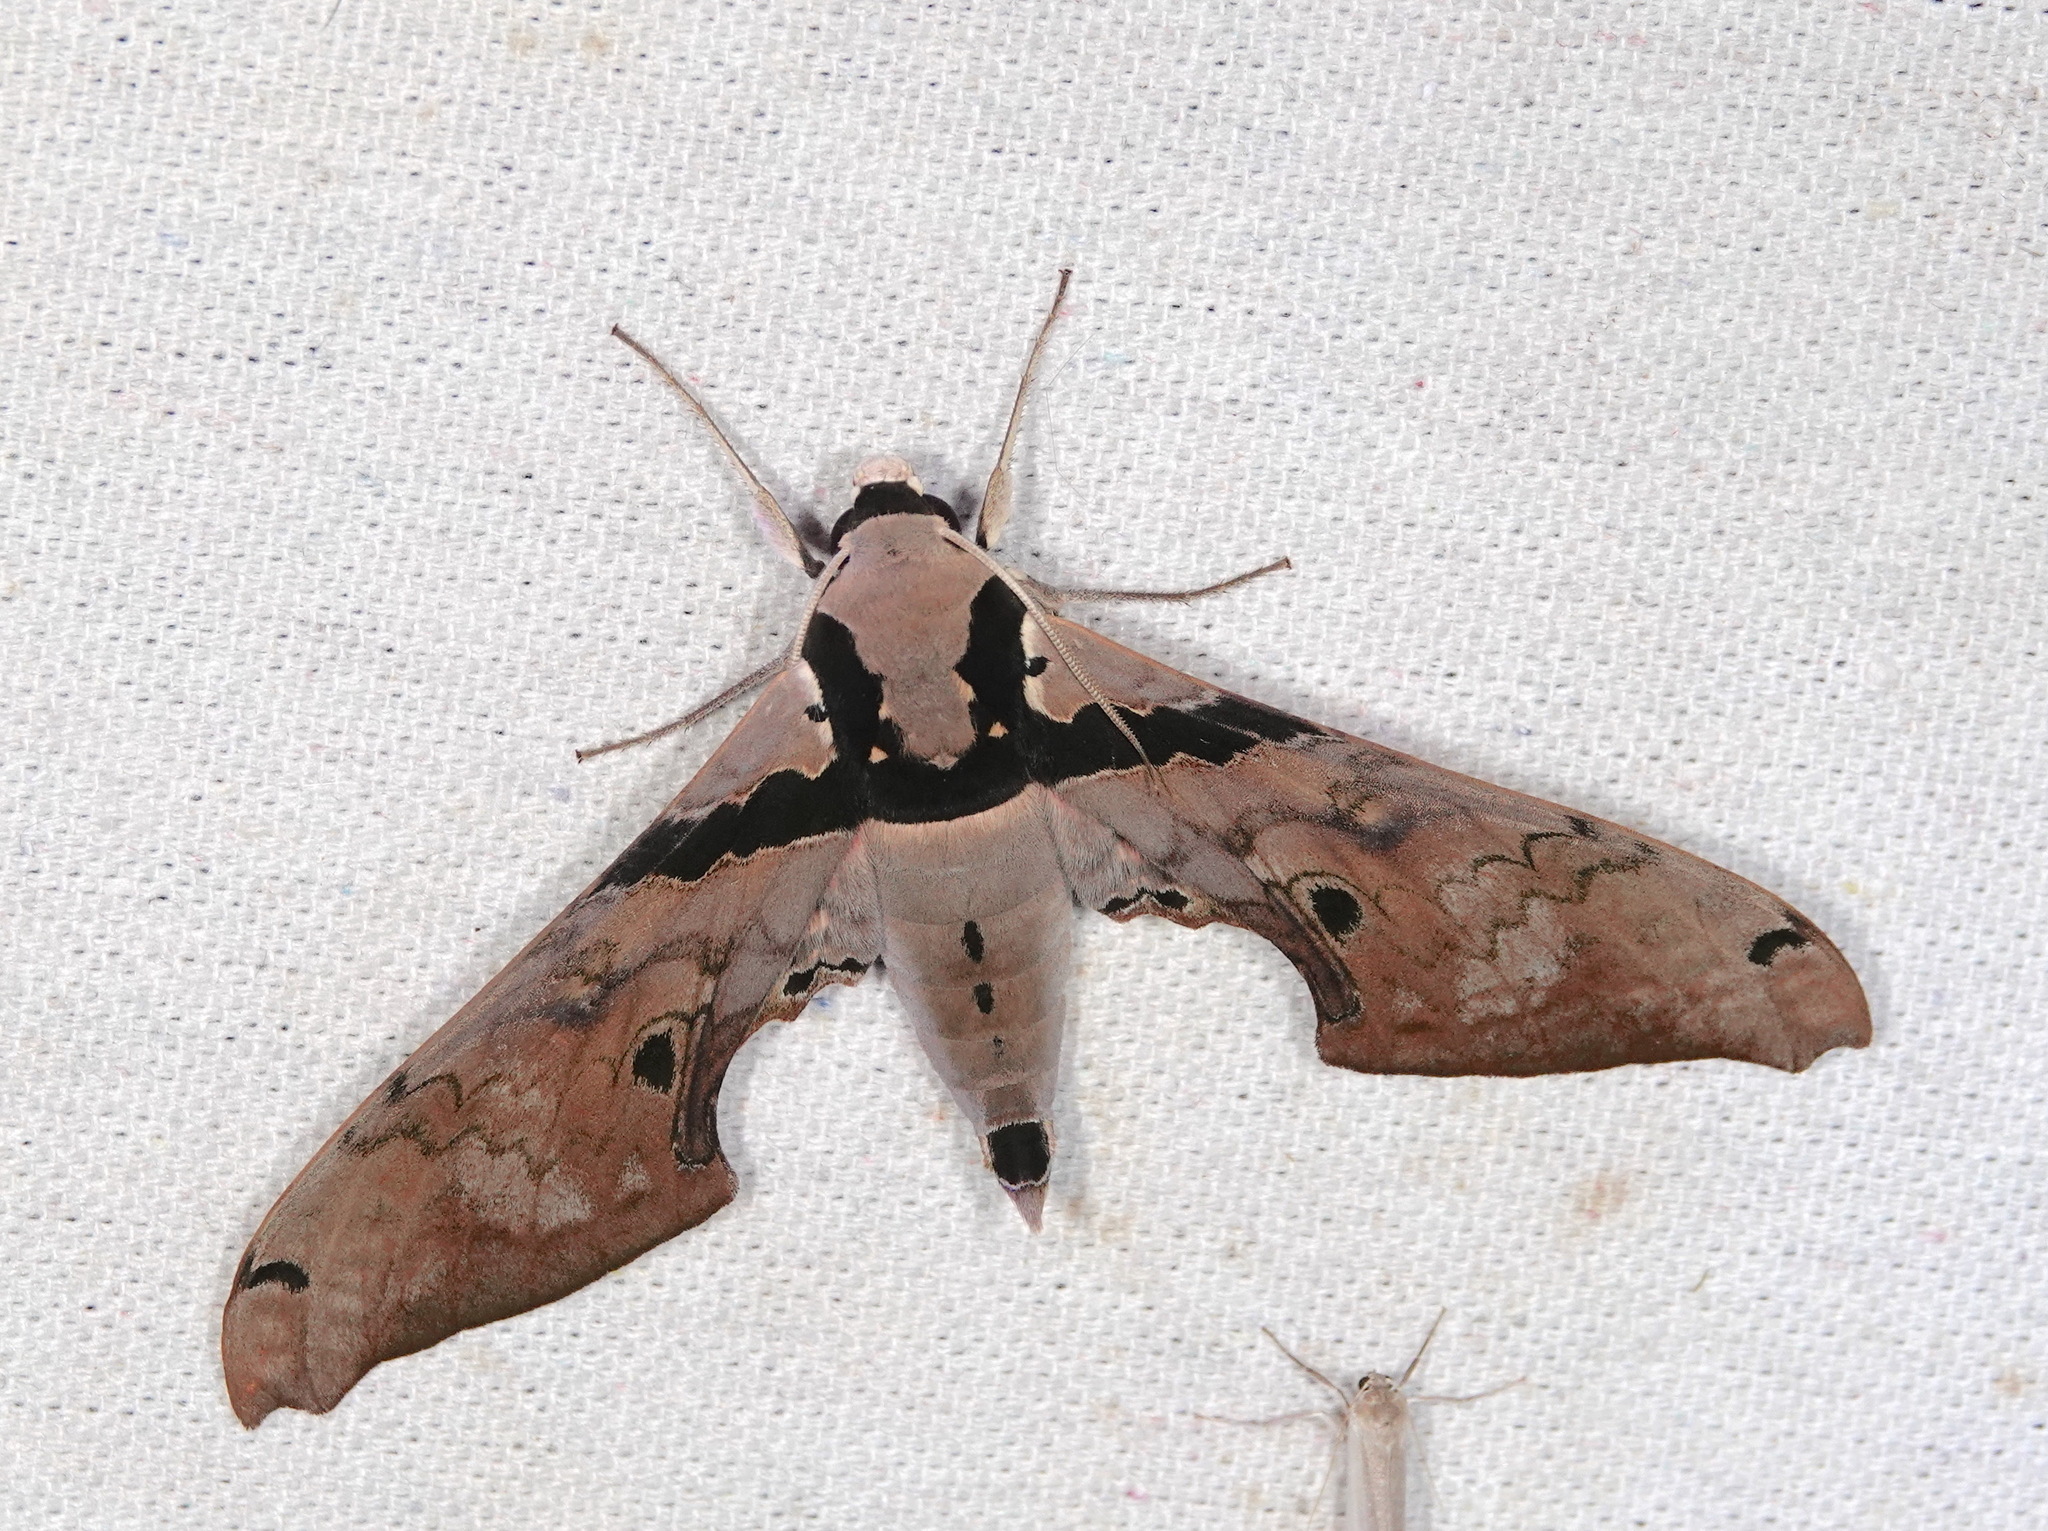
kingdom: Animalia
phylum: Arthropoda
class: Insecta
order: Lepidoptera
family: Sphingidae
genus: Adhemarius
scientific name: Adhemarius gannascus
